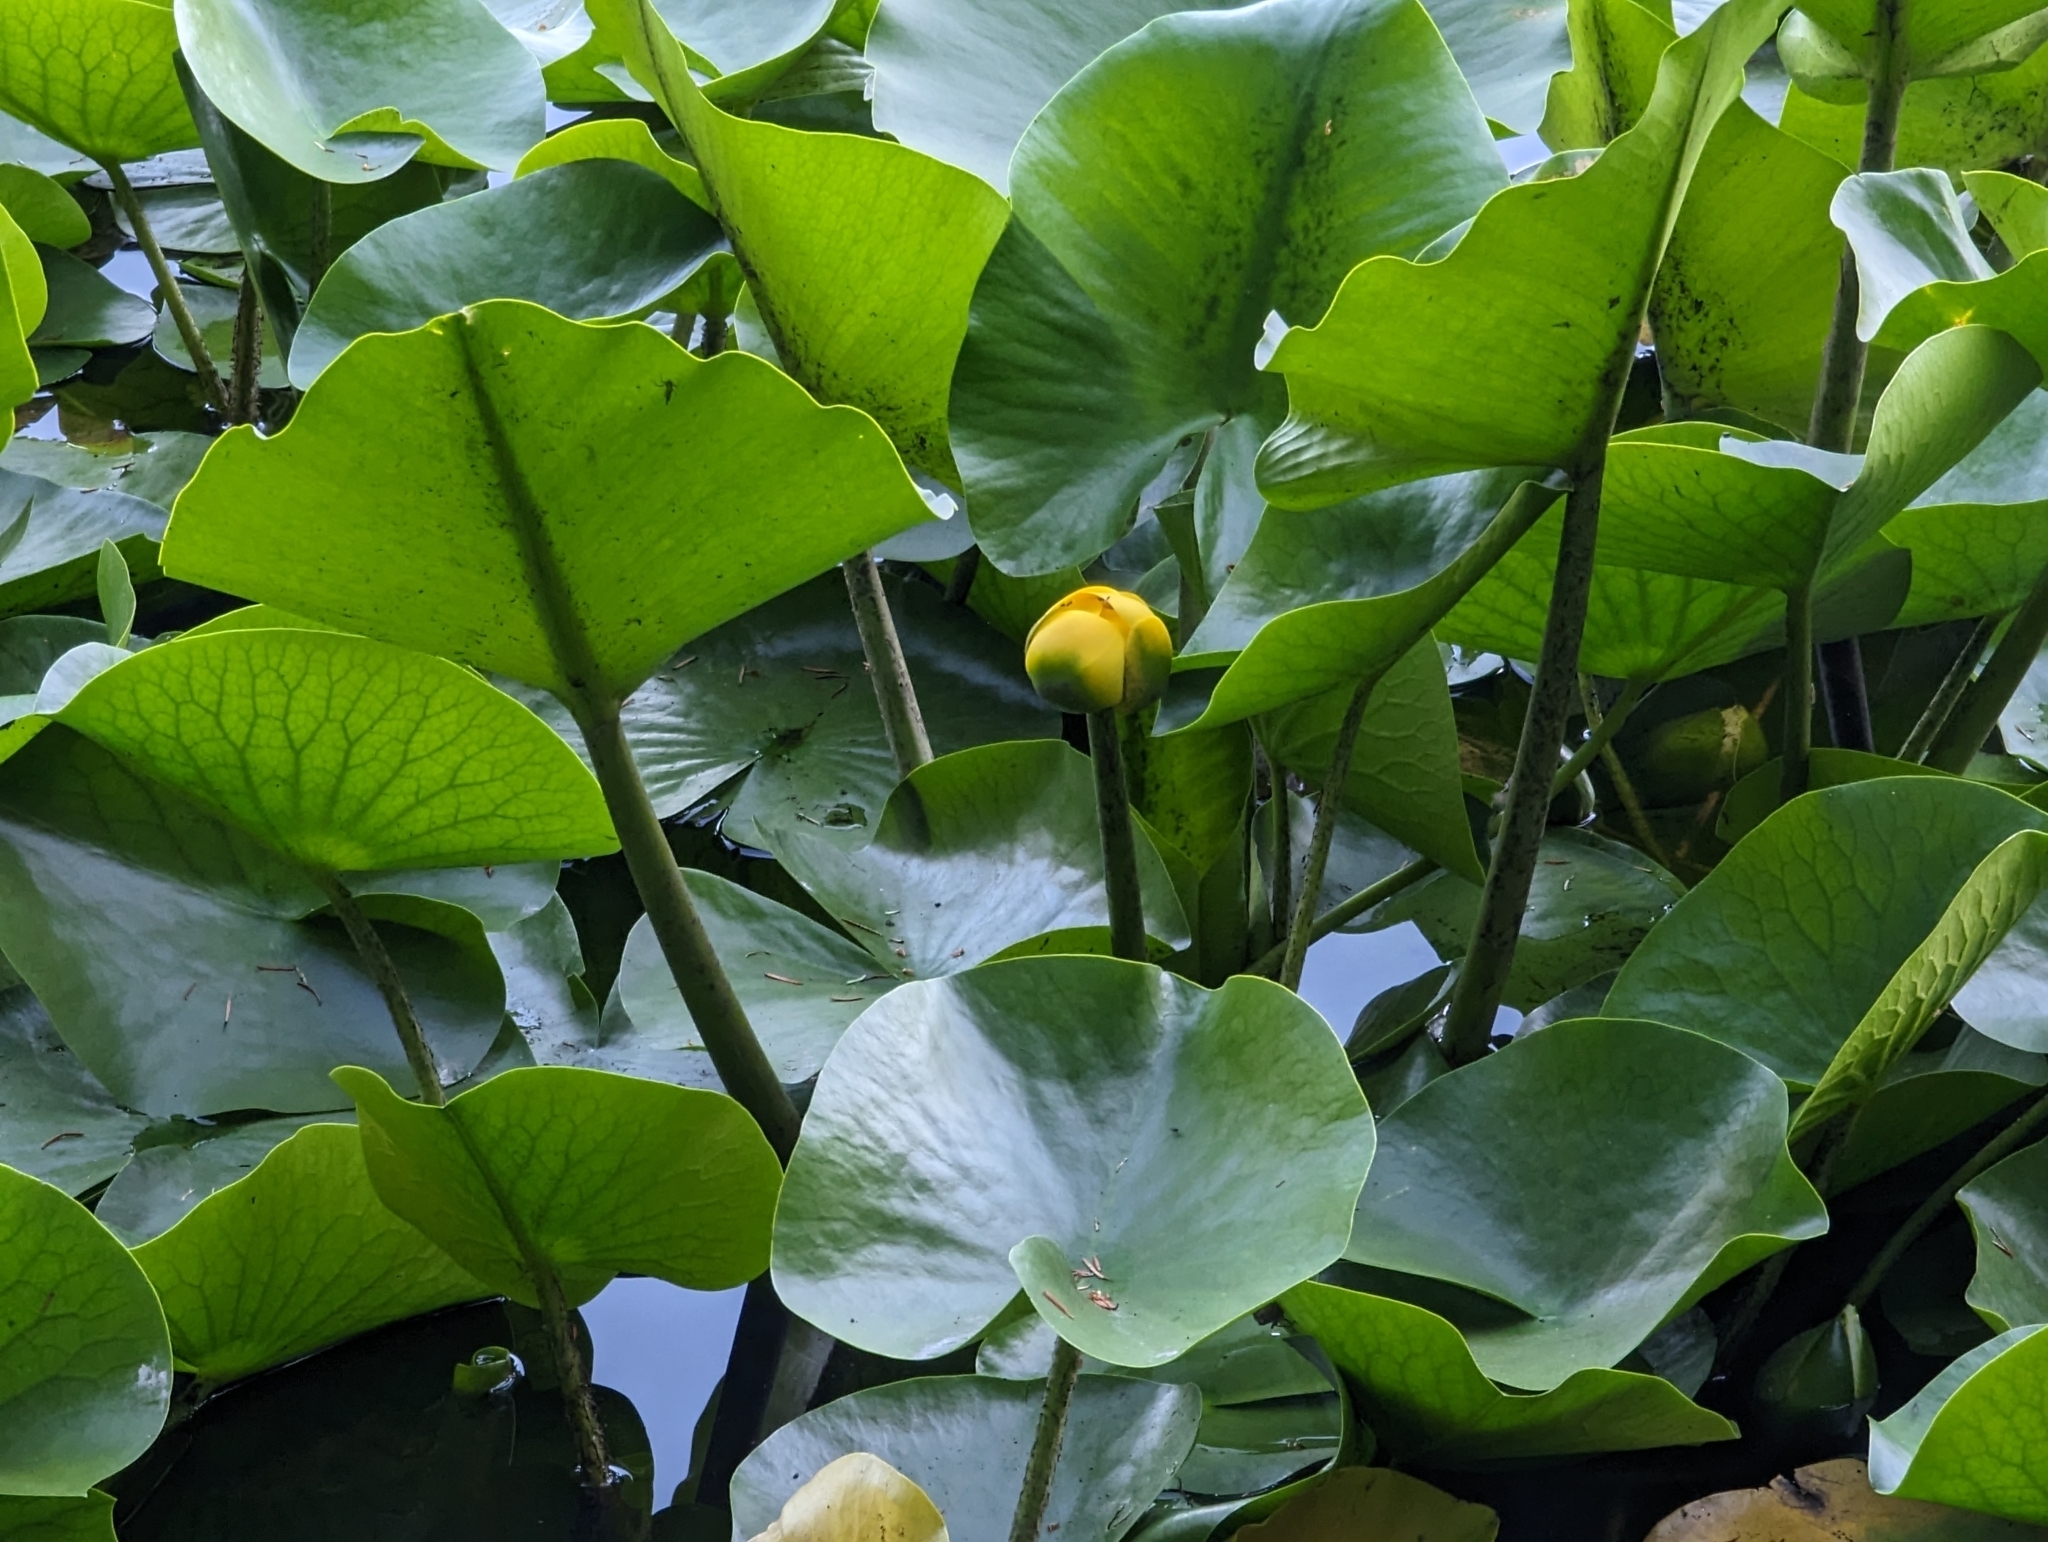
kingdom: Plantae
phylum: Tracheophyta
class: Magnoliopsida
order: Nymphaeales
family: Nymphaeaceae
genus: Nuphar
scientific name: Nuphar polysepala
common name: Rocky mountain cow-lily
